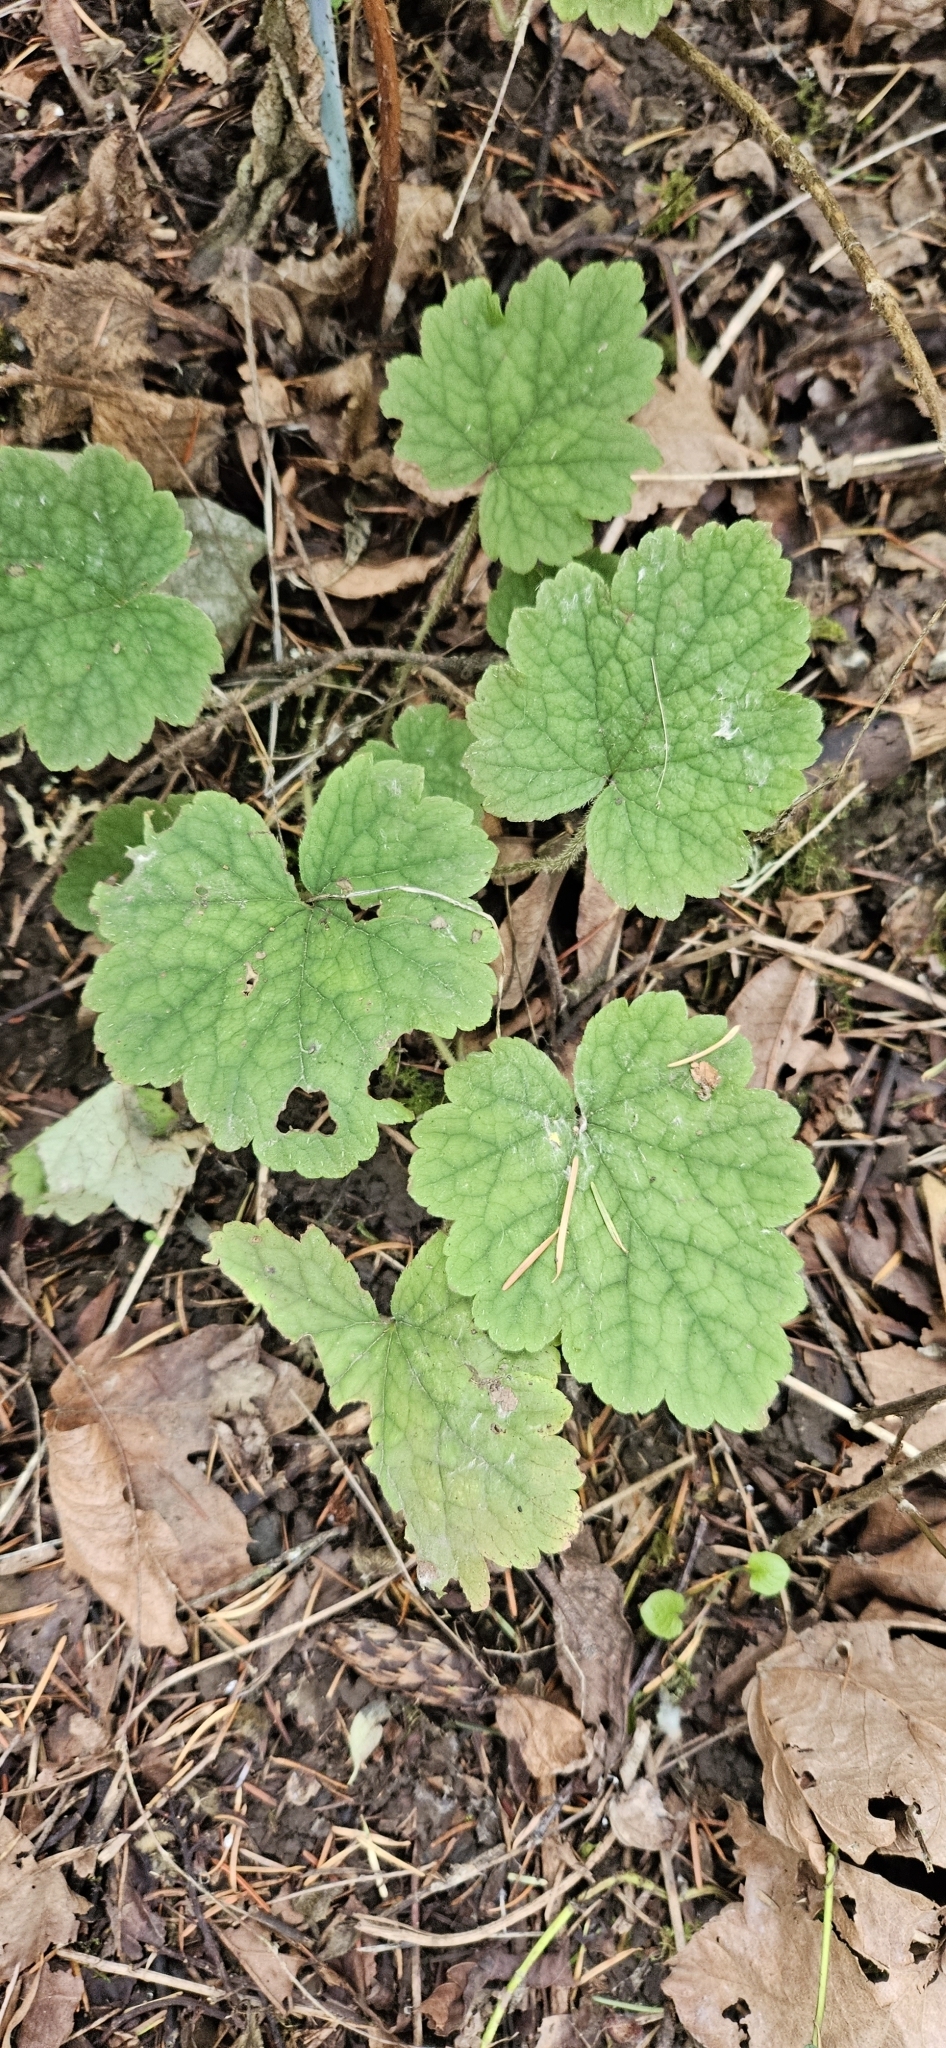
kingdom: Plantae
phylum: Tracheophyta
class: Magnoliopsida
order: Saxifragales
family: Saxifragaceae
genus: Tellima
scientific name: Tellima grandiflora
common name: Fringecups
